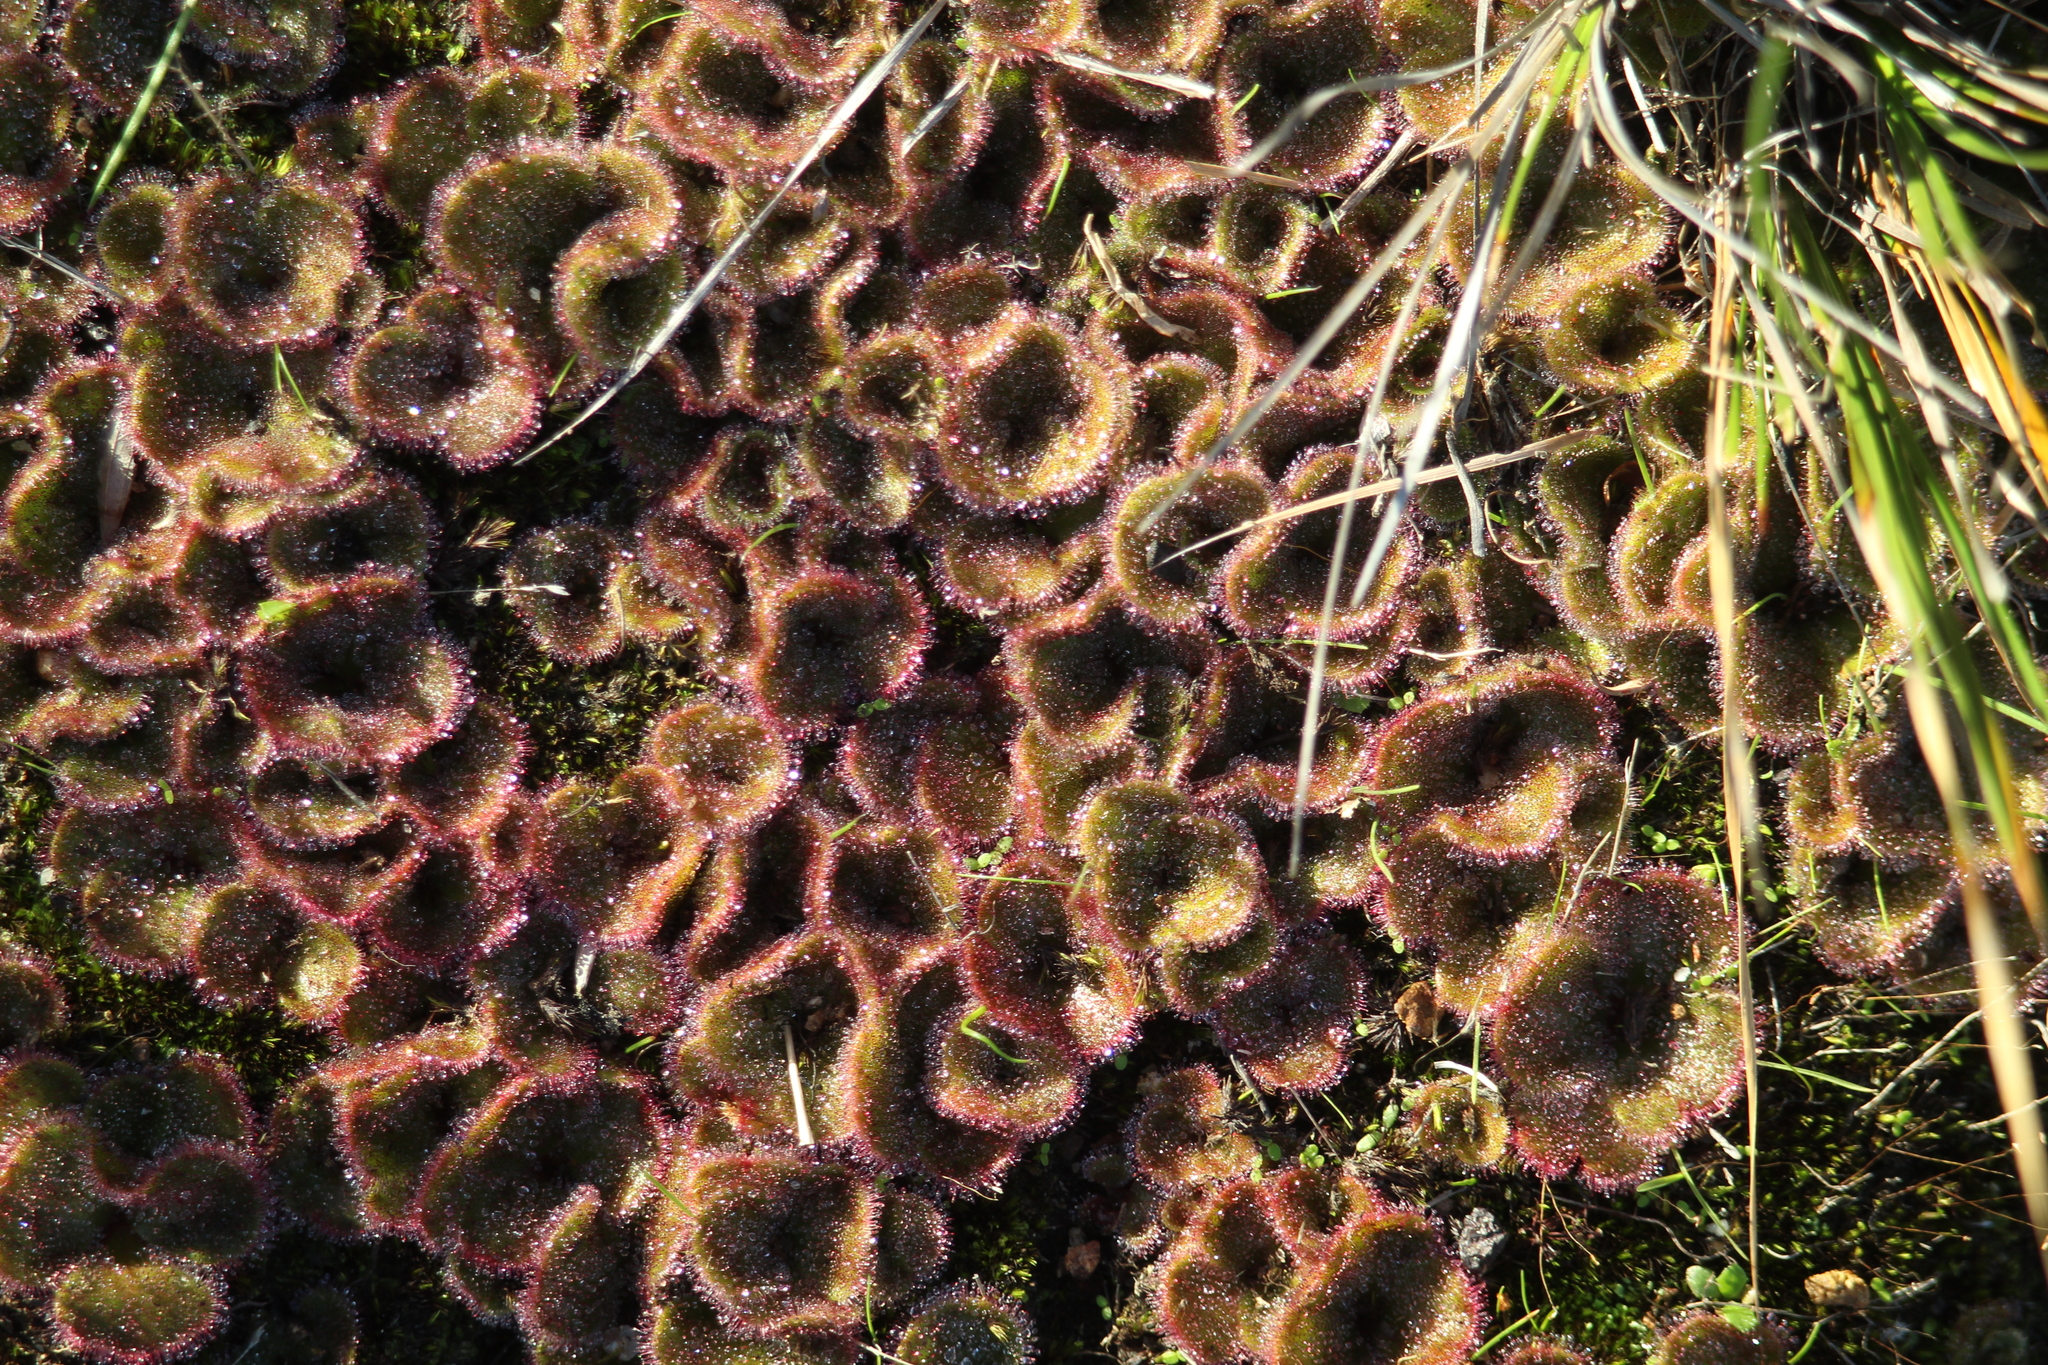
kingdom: Plantae
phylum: Tracheophyta
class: Magnoliopsida
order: Caryophyllales
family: Droseraceae
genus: Drosera
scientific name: Drosera erythrorhiza
